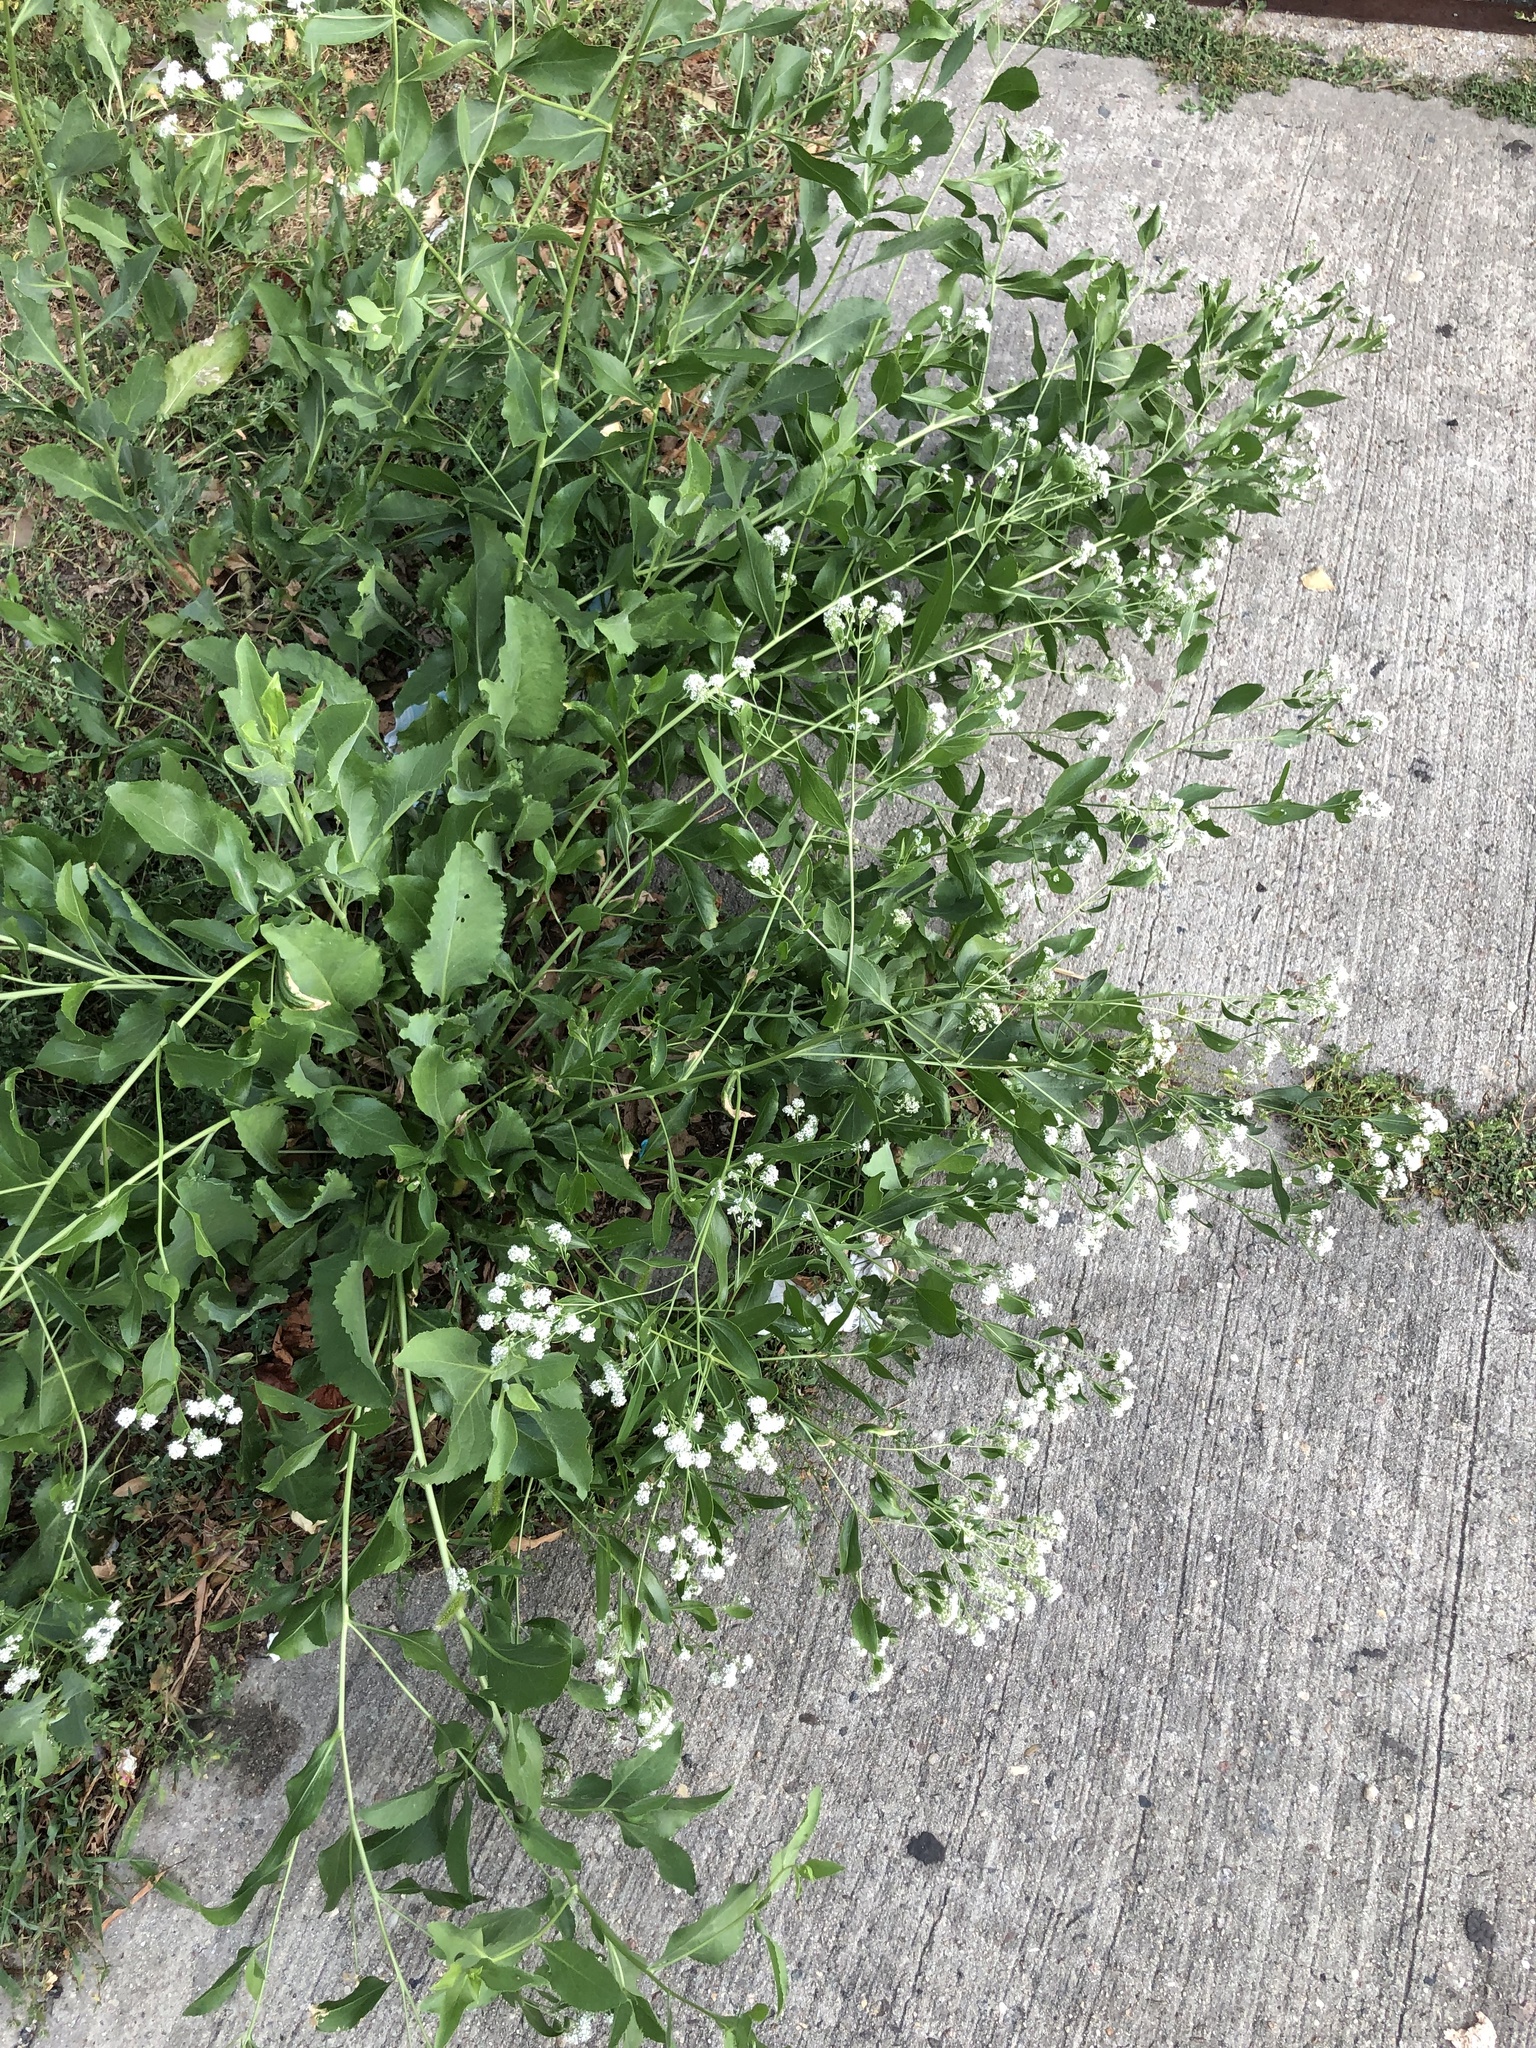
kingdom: Plantae
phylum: Tracheophyta
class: Magnoliopsida
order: Brassicales
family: Brassicaceae
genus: Lepidium
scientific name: Lepidium latifolium
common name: Dittander
